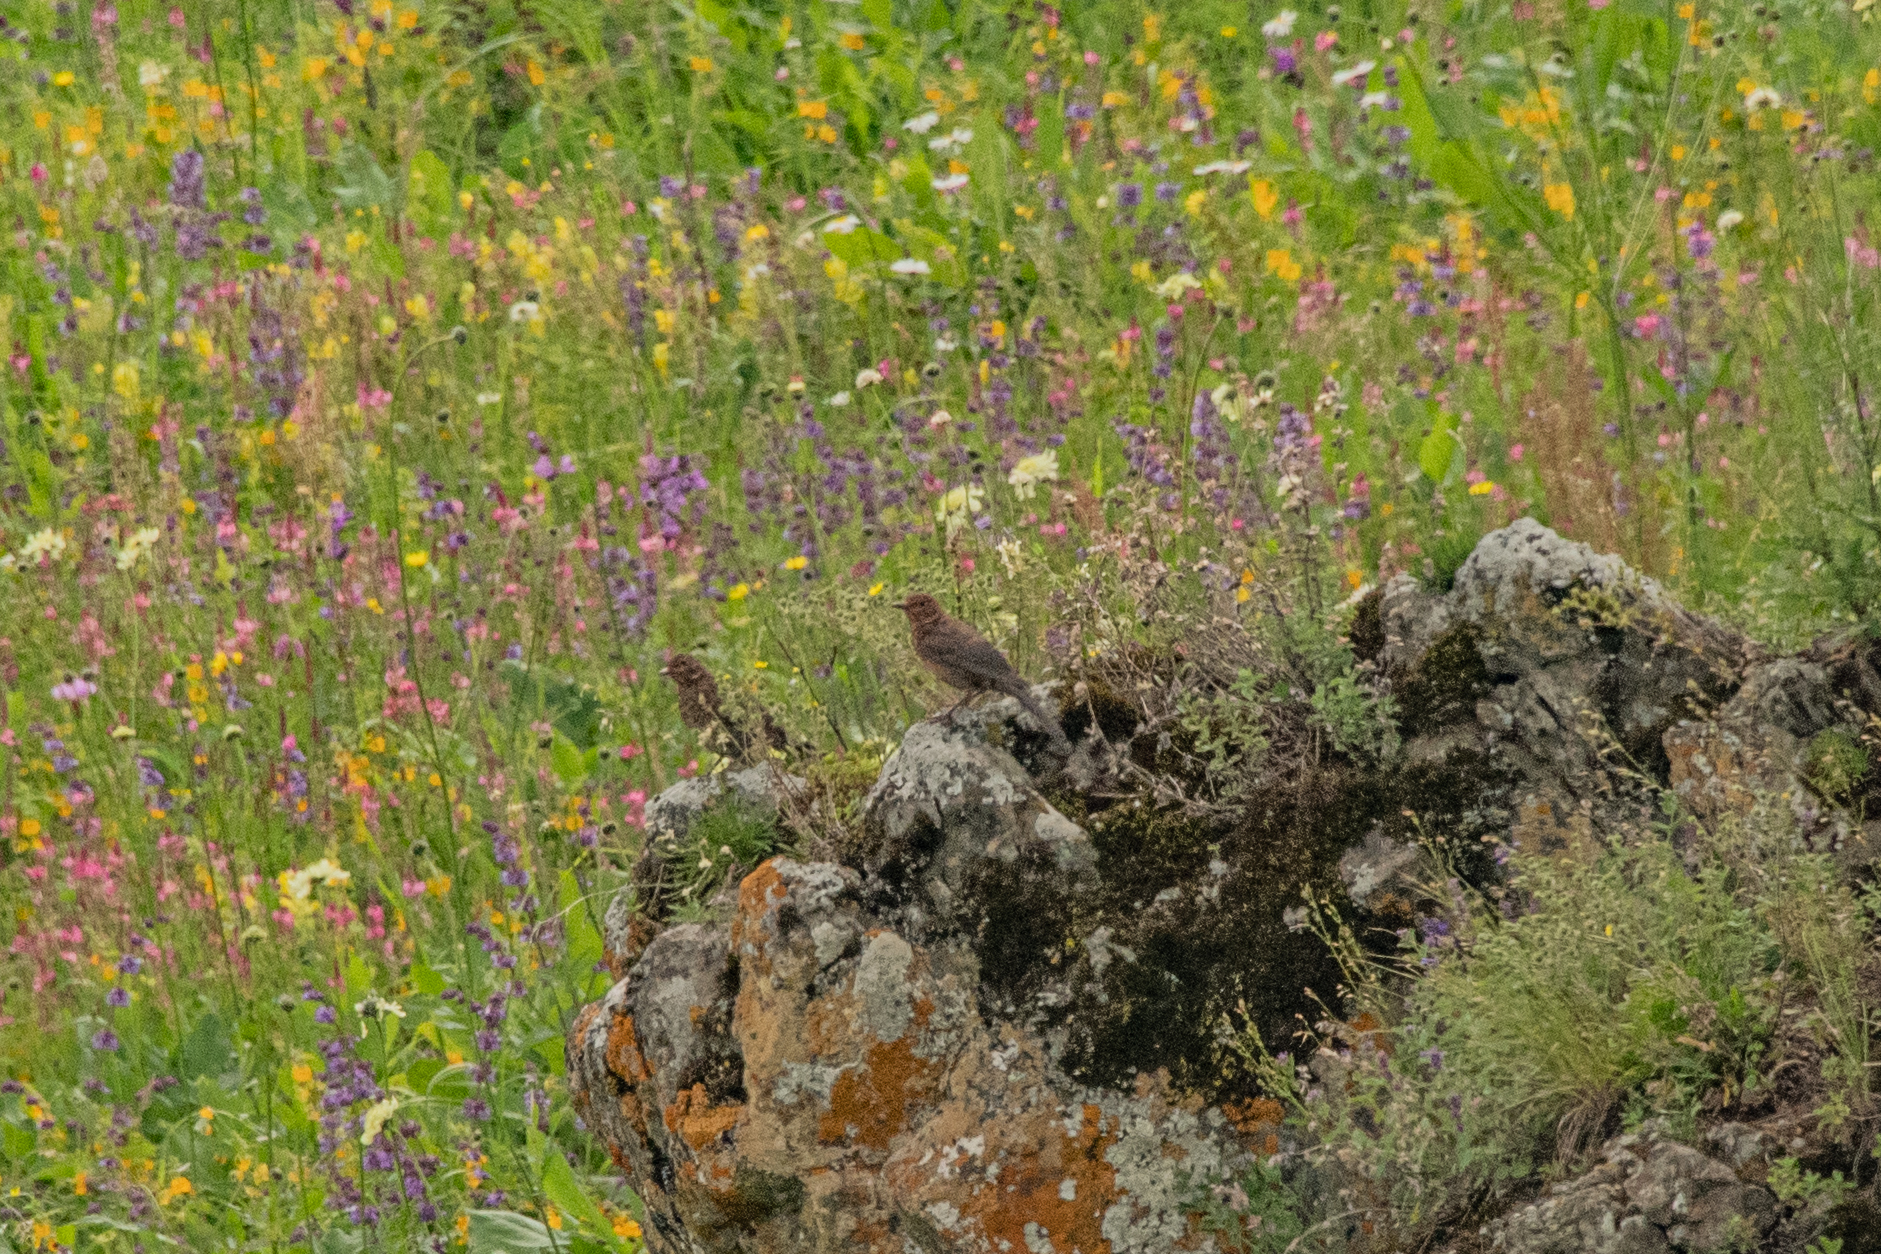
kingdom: Animalia
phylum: Chordata
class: Aves
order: Passeriformes
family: Turdidae
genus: Turdus
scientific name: Turdus merula
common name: Common blackbird
